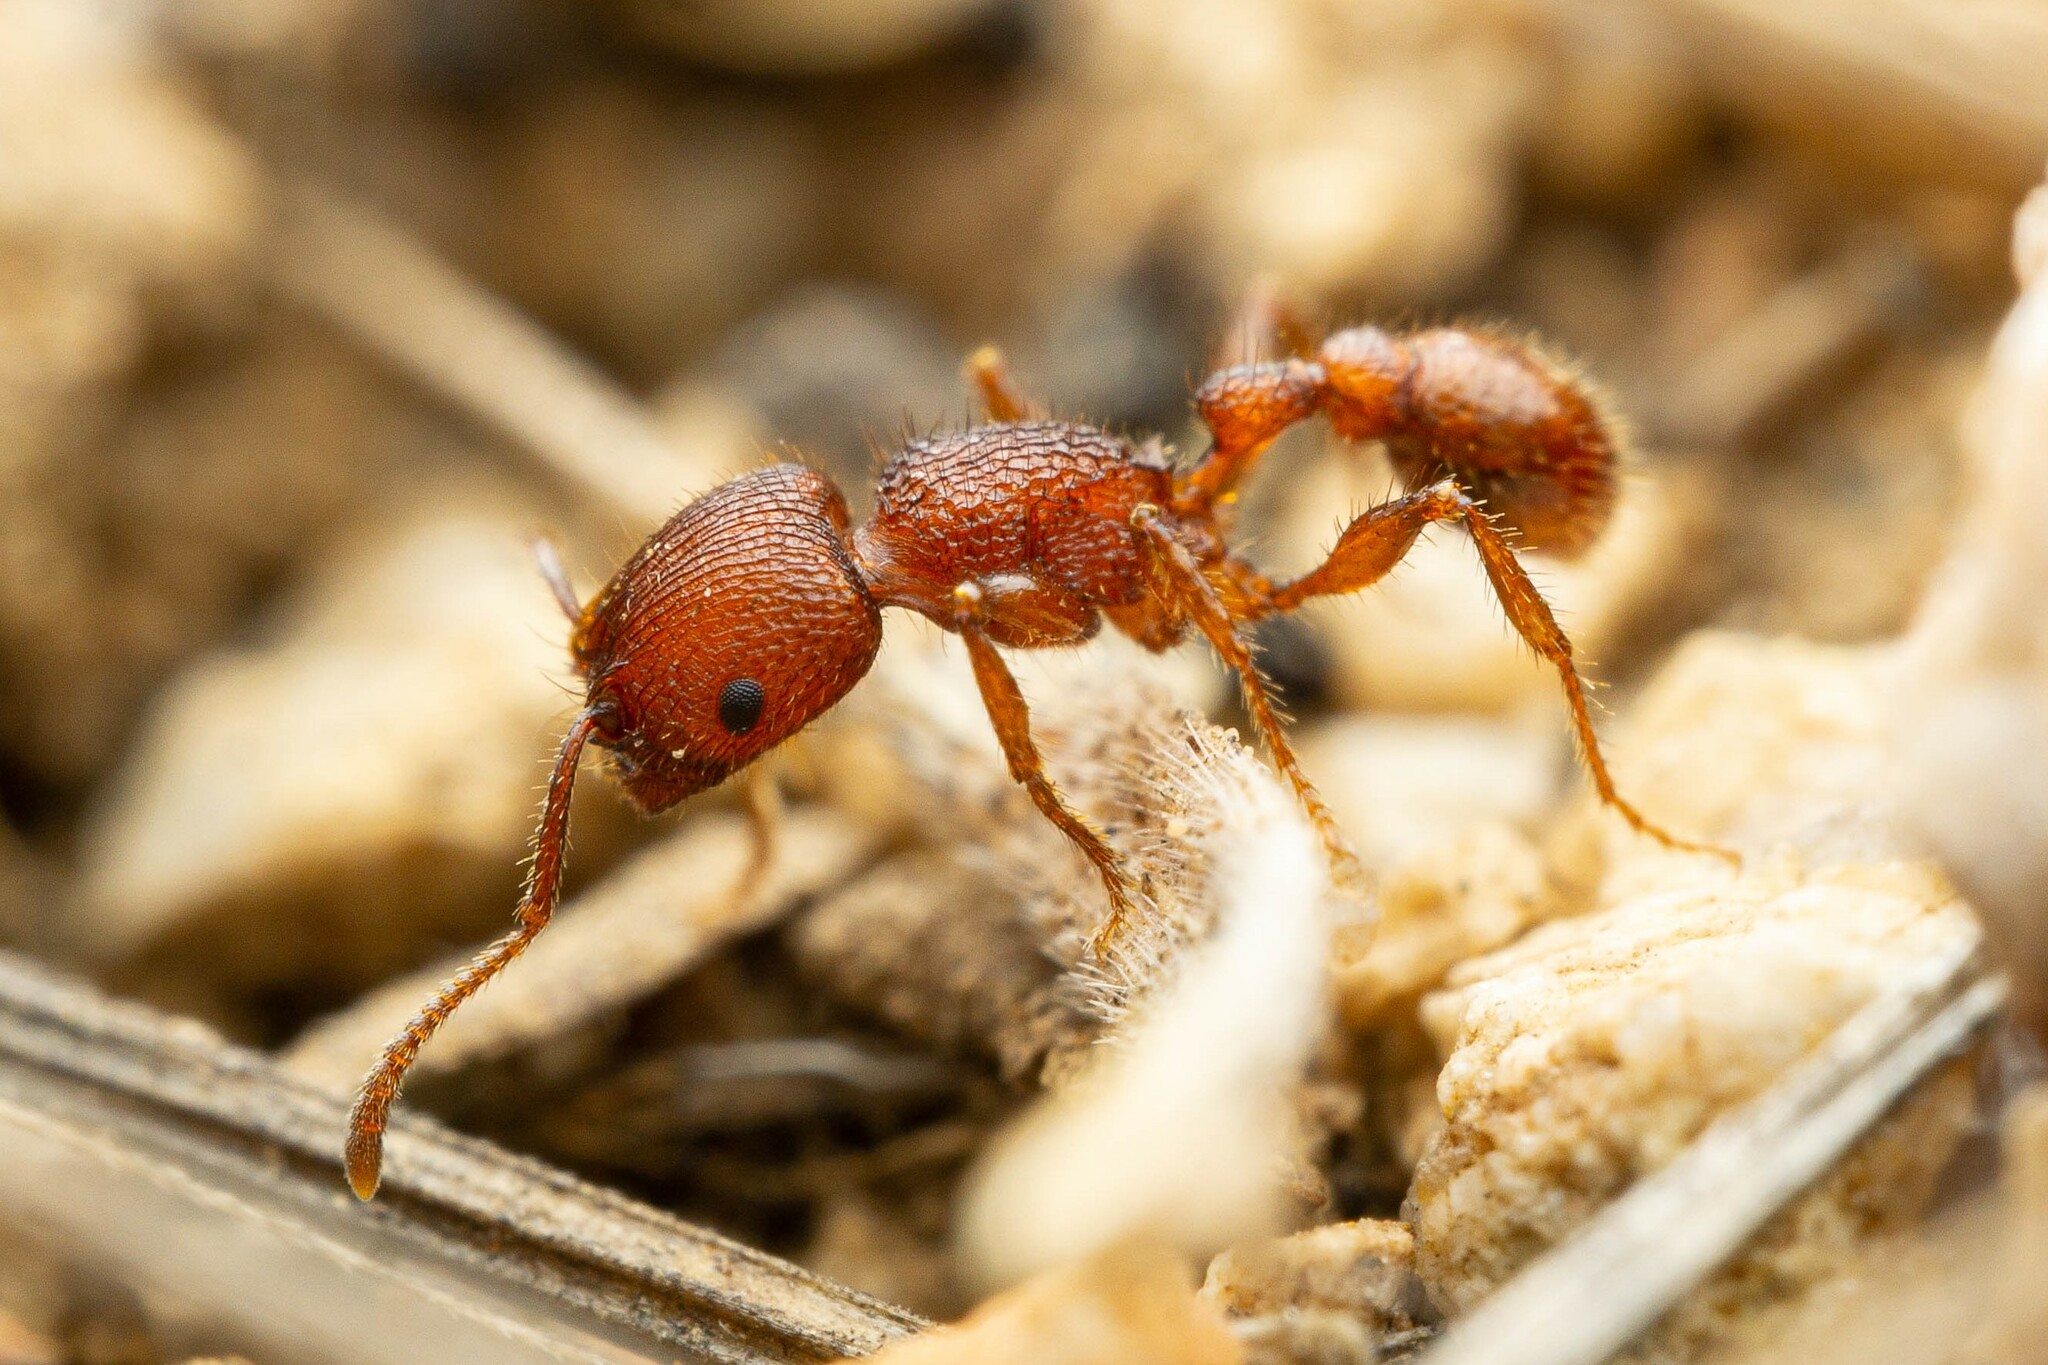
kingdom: Animalia
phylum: Arthropoda
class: Insecta
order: Hymenoptera
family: Formicidae
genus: Pogonomyrmex
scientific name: Pogonomyrmex imberbiculus
